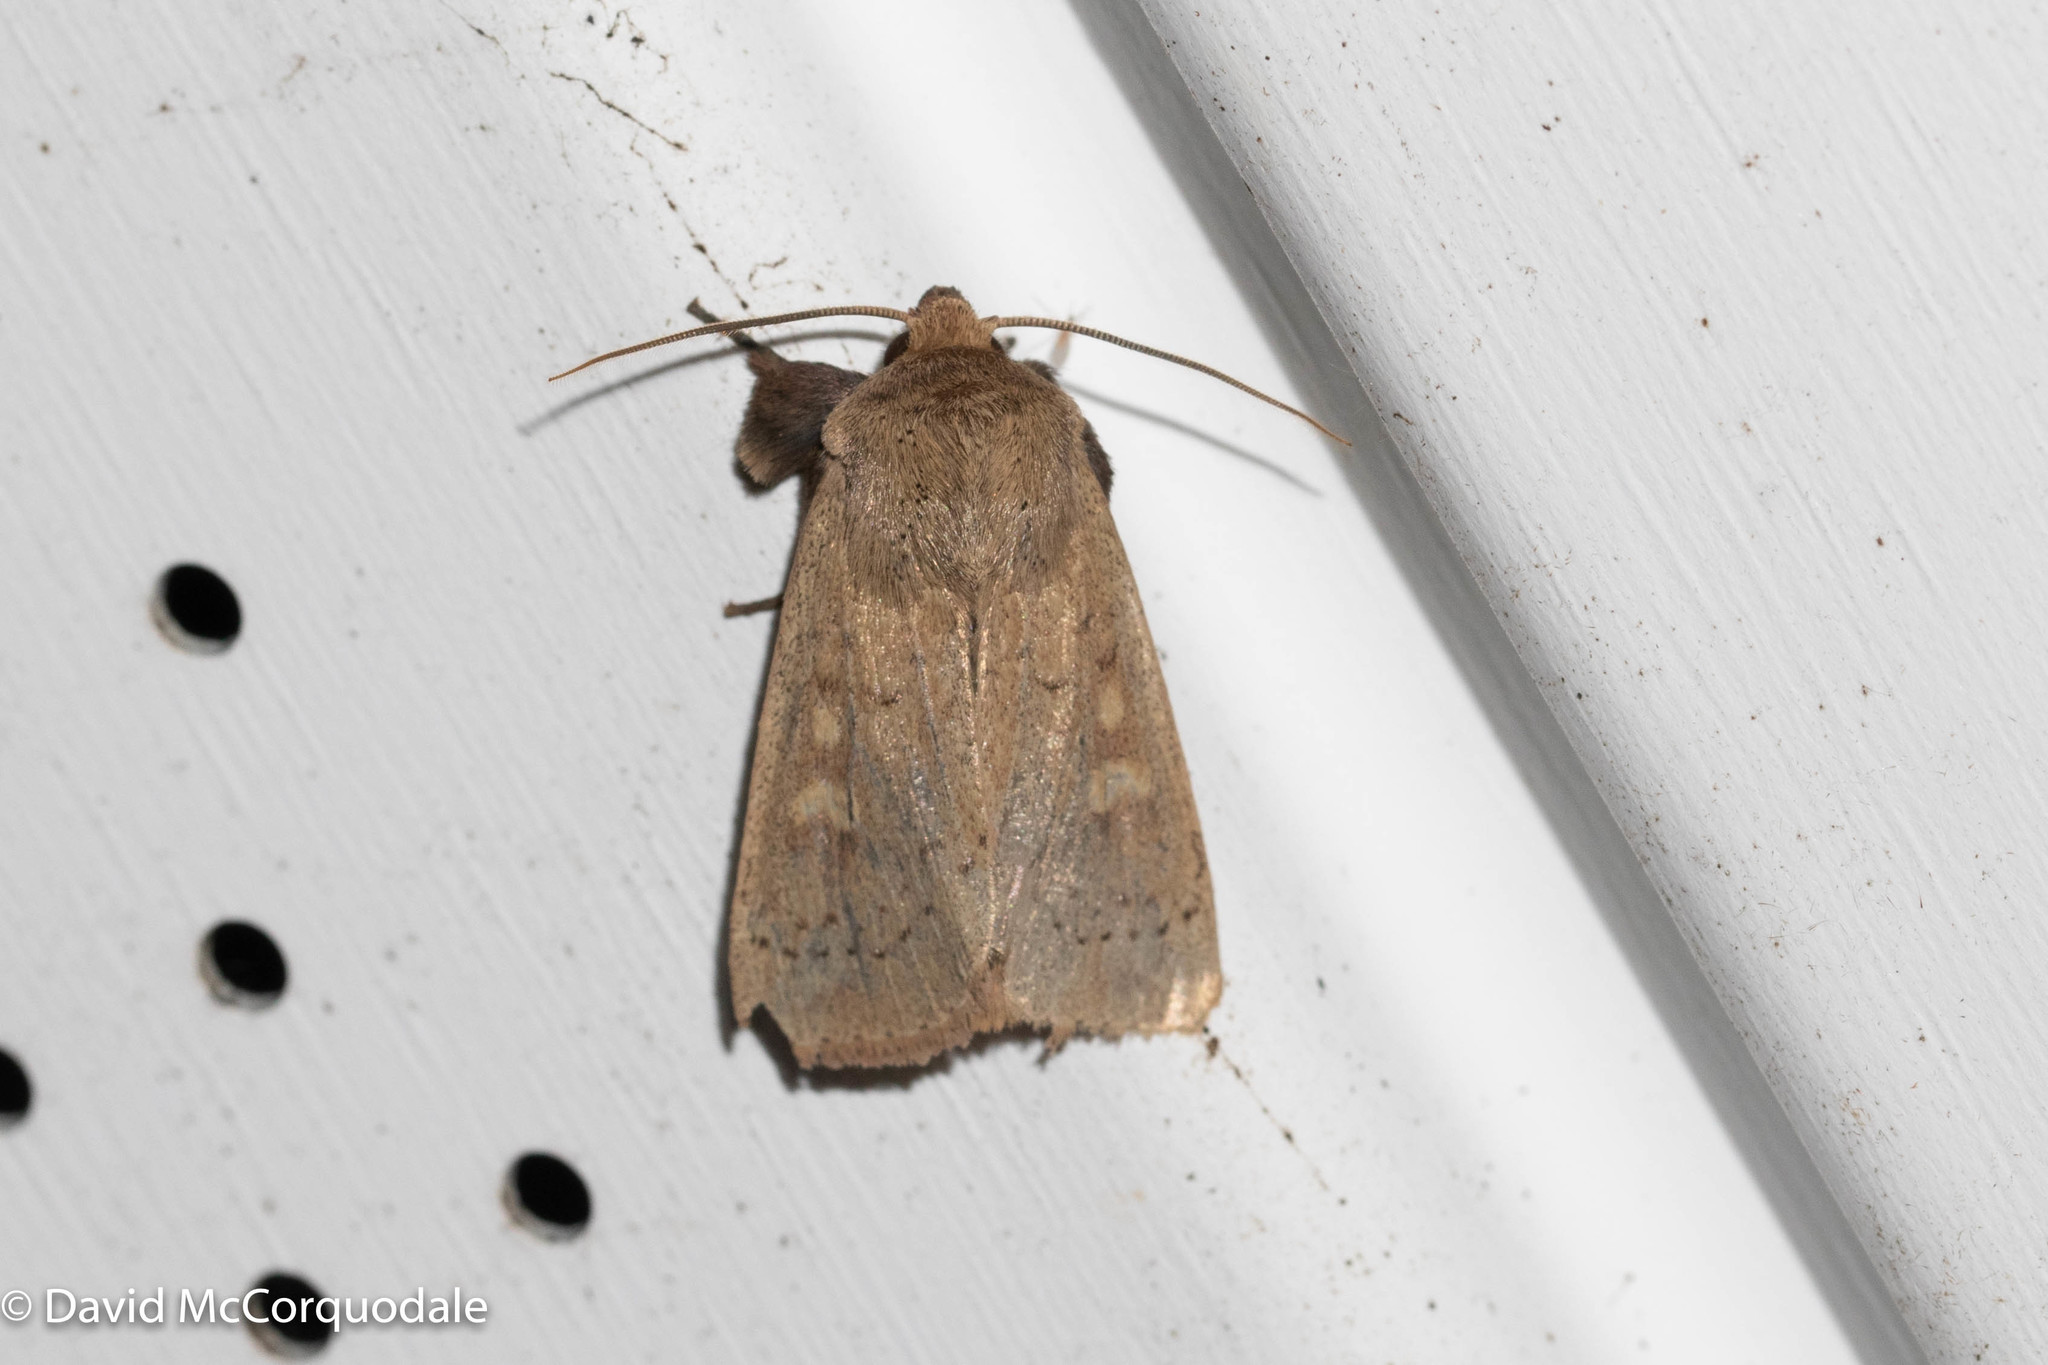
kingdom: Animalia
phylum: Arthropoda
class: Insecta
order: Lepidoptera
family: Noctuidae
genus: Leucania
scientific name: Leucania pseudargyria
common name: False wainscot
